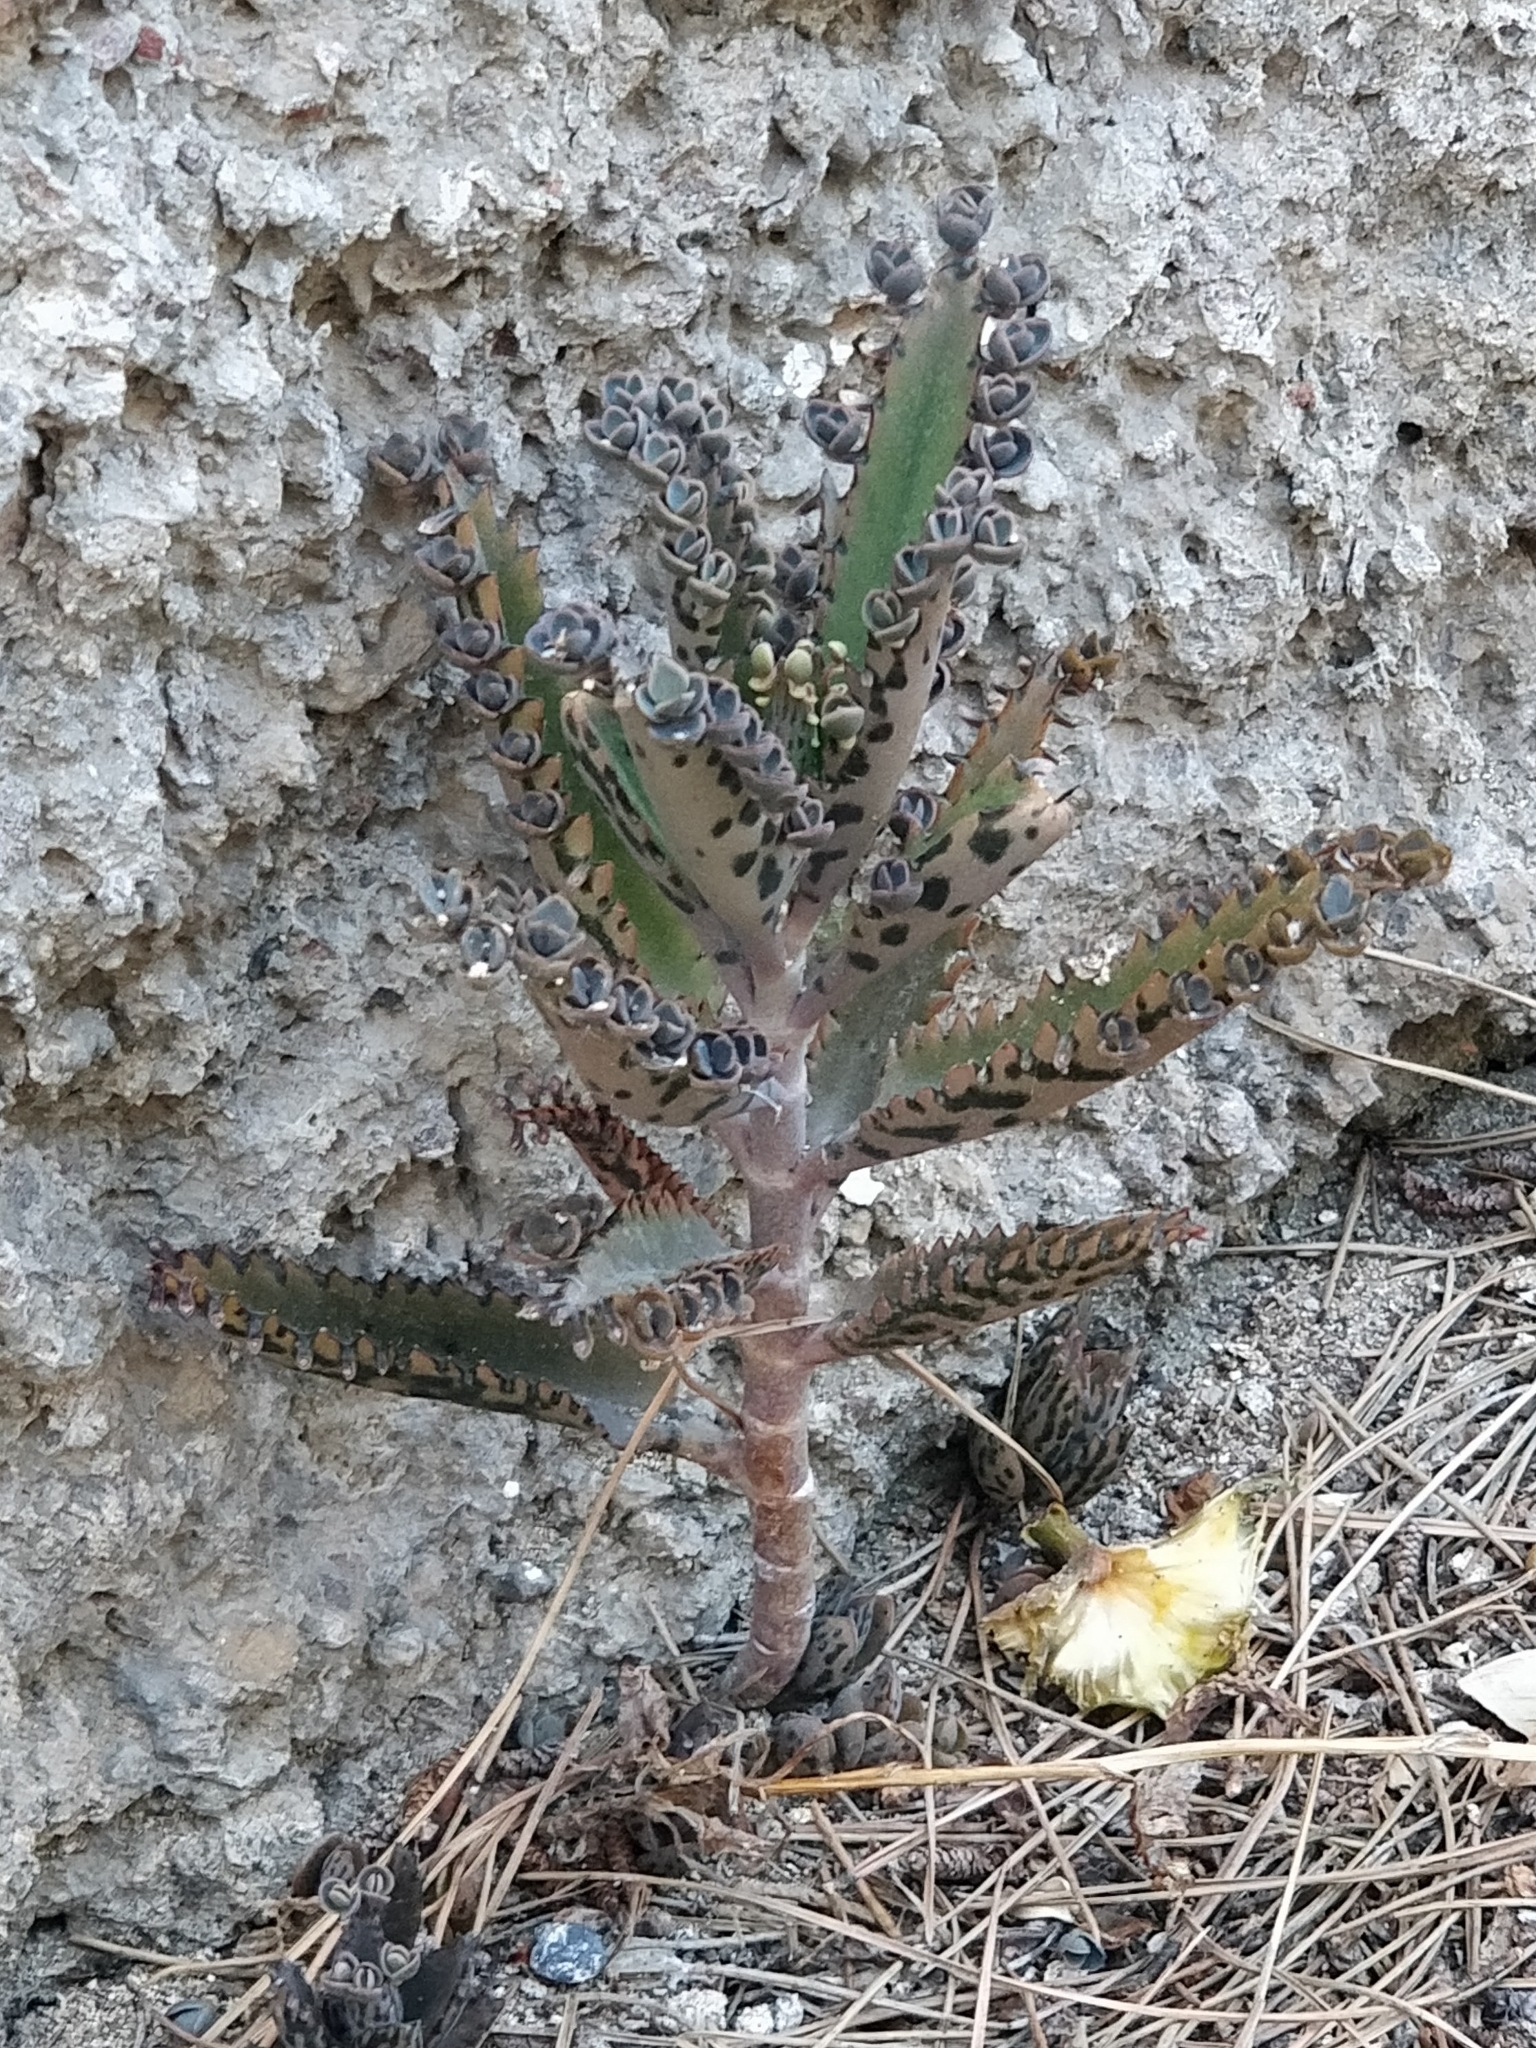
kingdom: Plantae
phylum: Tracheophyta
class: Magnoliopsida
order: Saxifragales
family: Crassulaceae
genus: Kalanchoe
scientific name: Kalanchoe houghtonii
